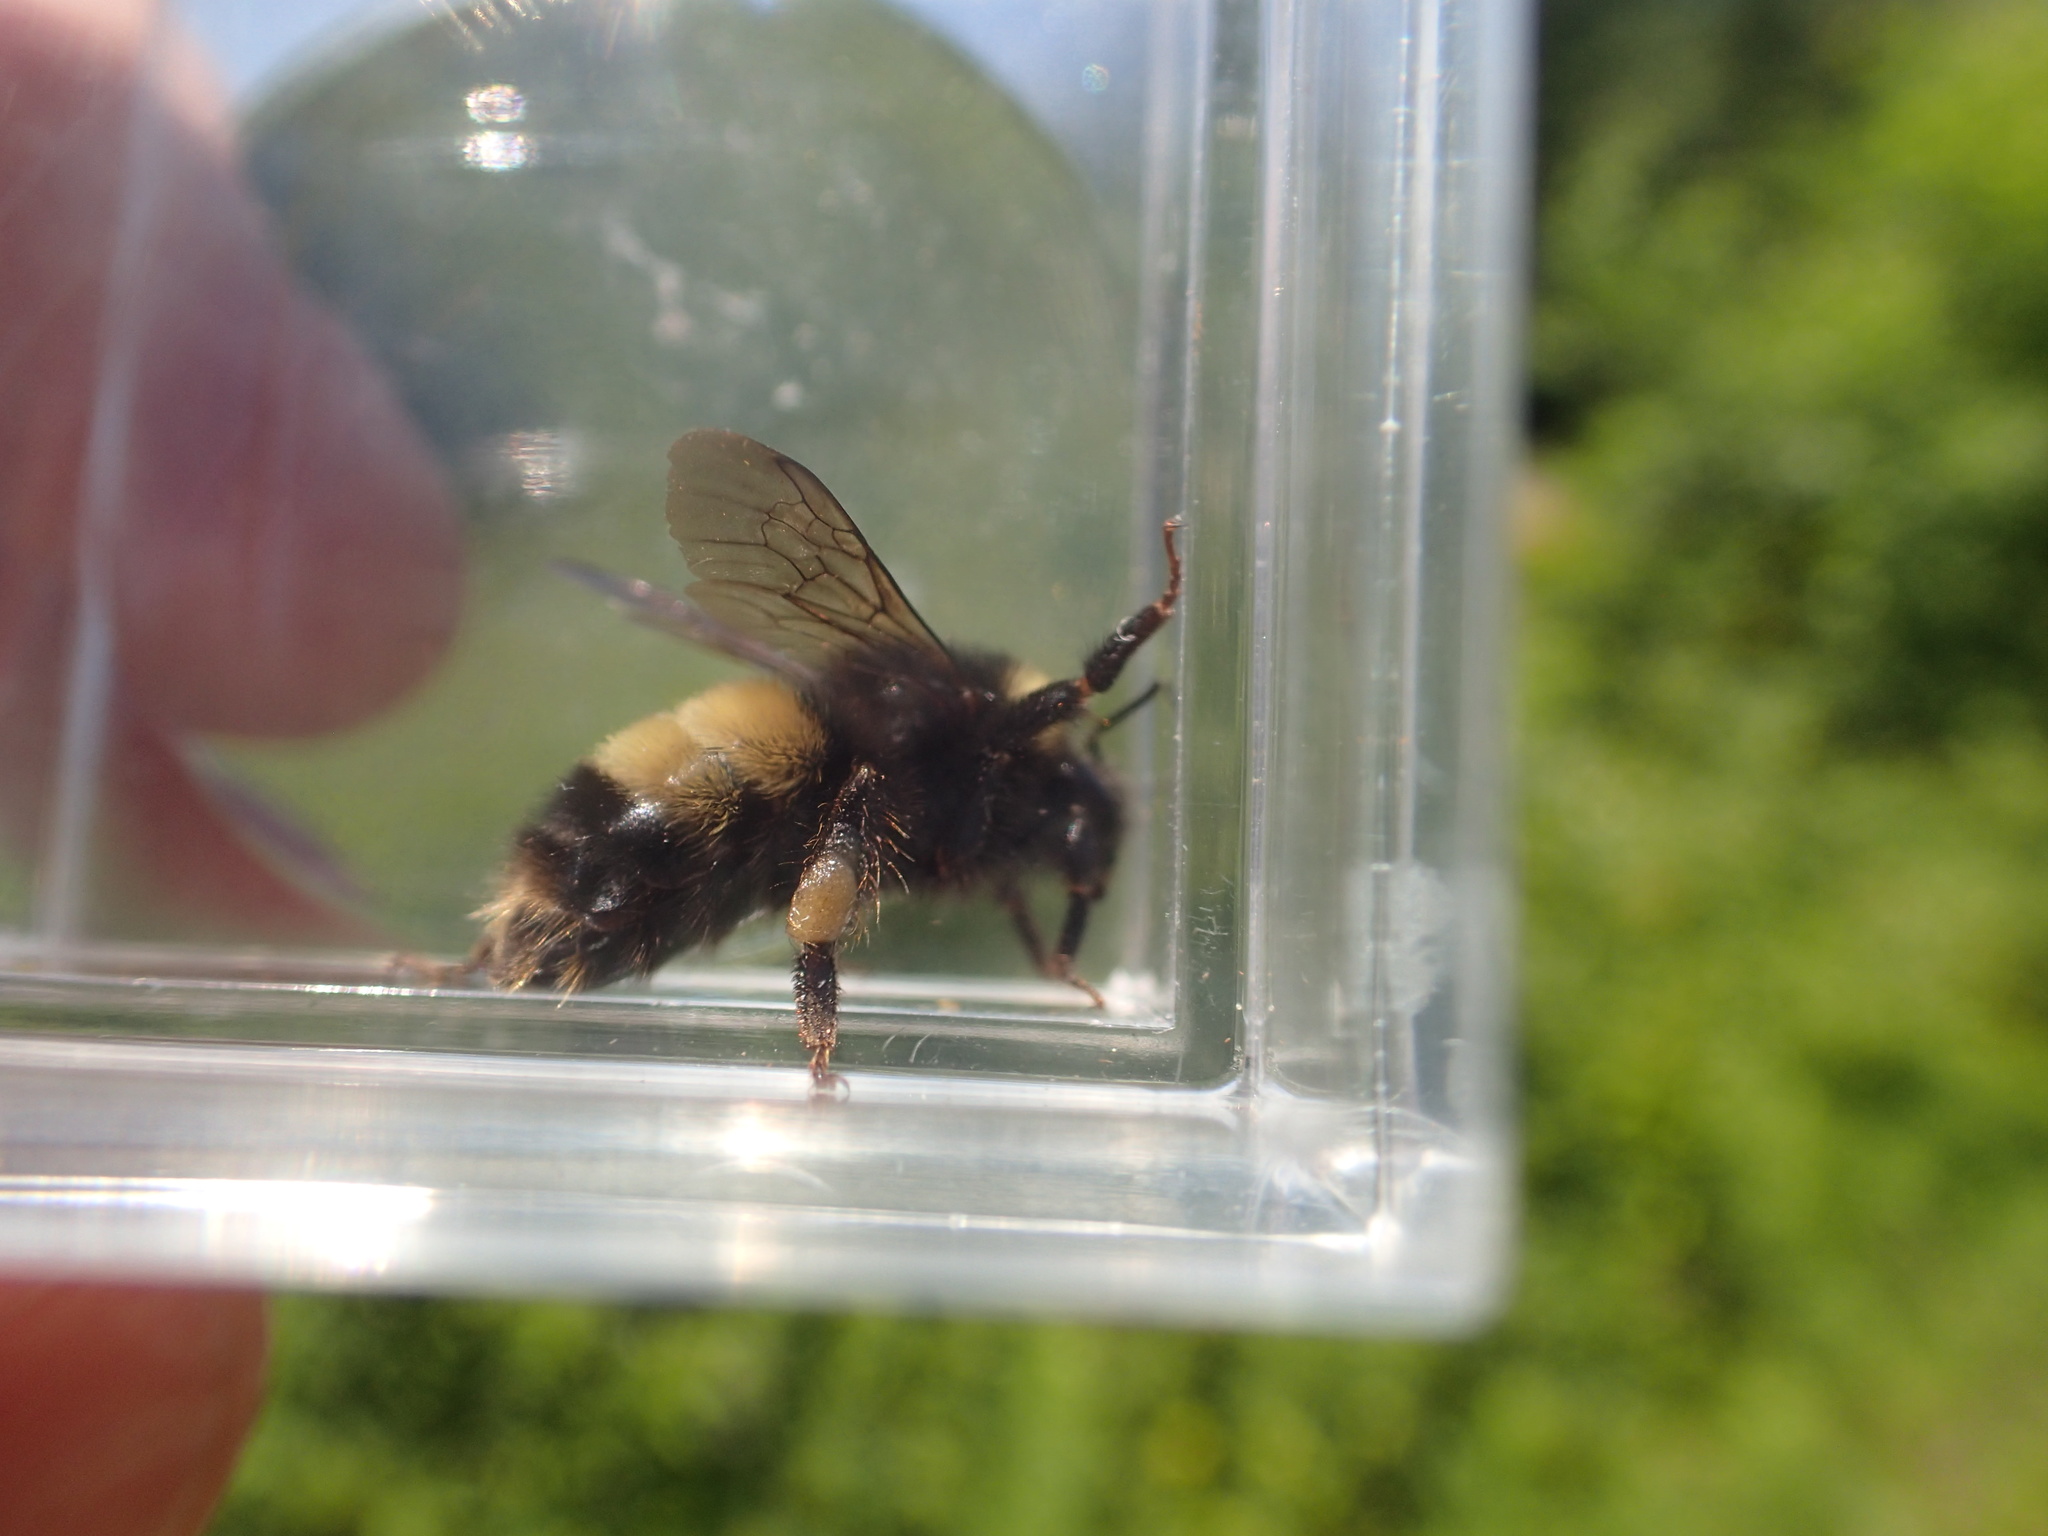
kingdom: Animalia
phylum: Arthropoda
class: Insecta
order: Hymenoptera
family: Apidae
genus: Bombus
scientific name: Bombus terricola
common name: Yellow-banded bumble bee
